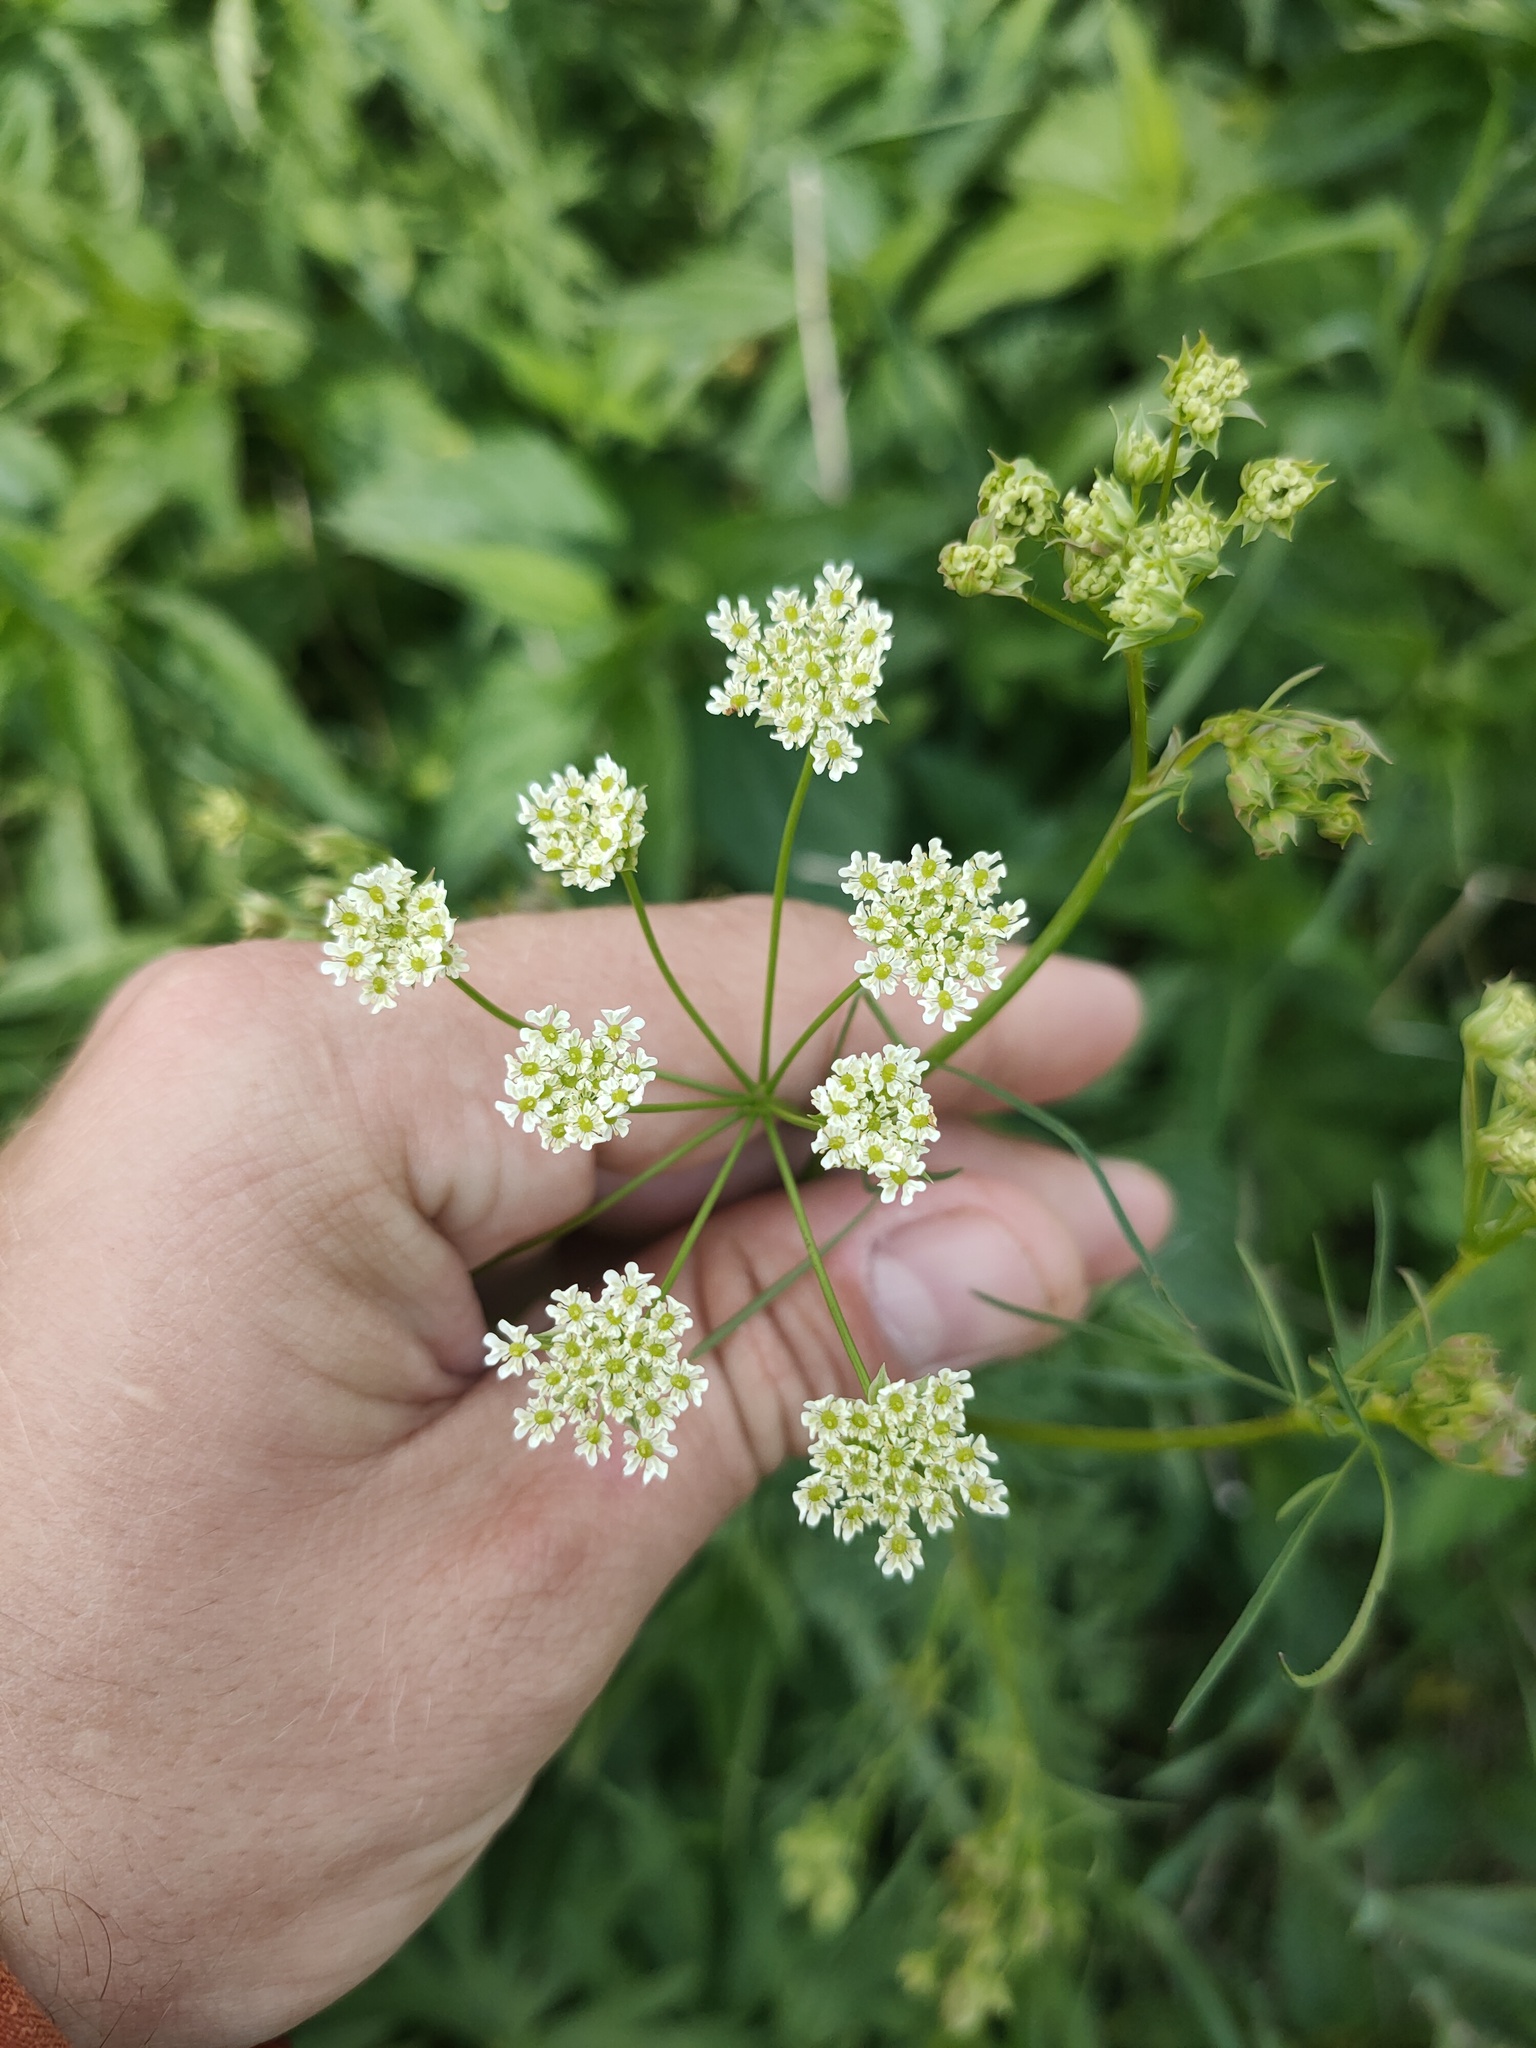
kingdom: Plantae
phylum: Tracheophyta
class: Magnoliopsida
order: Apiales
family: Apiaceae
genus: Chaerophyllum
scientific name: Chaerophyllum prescottii
